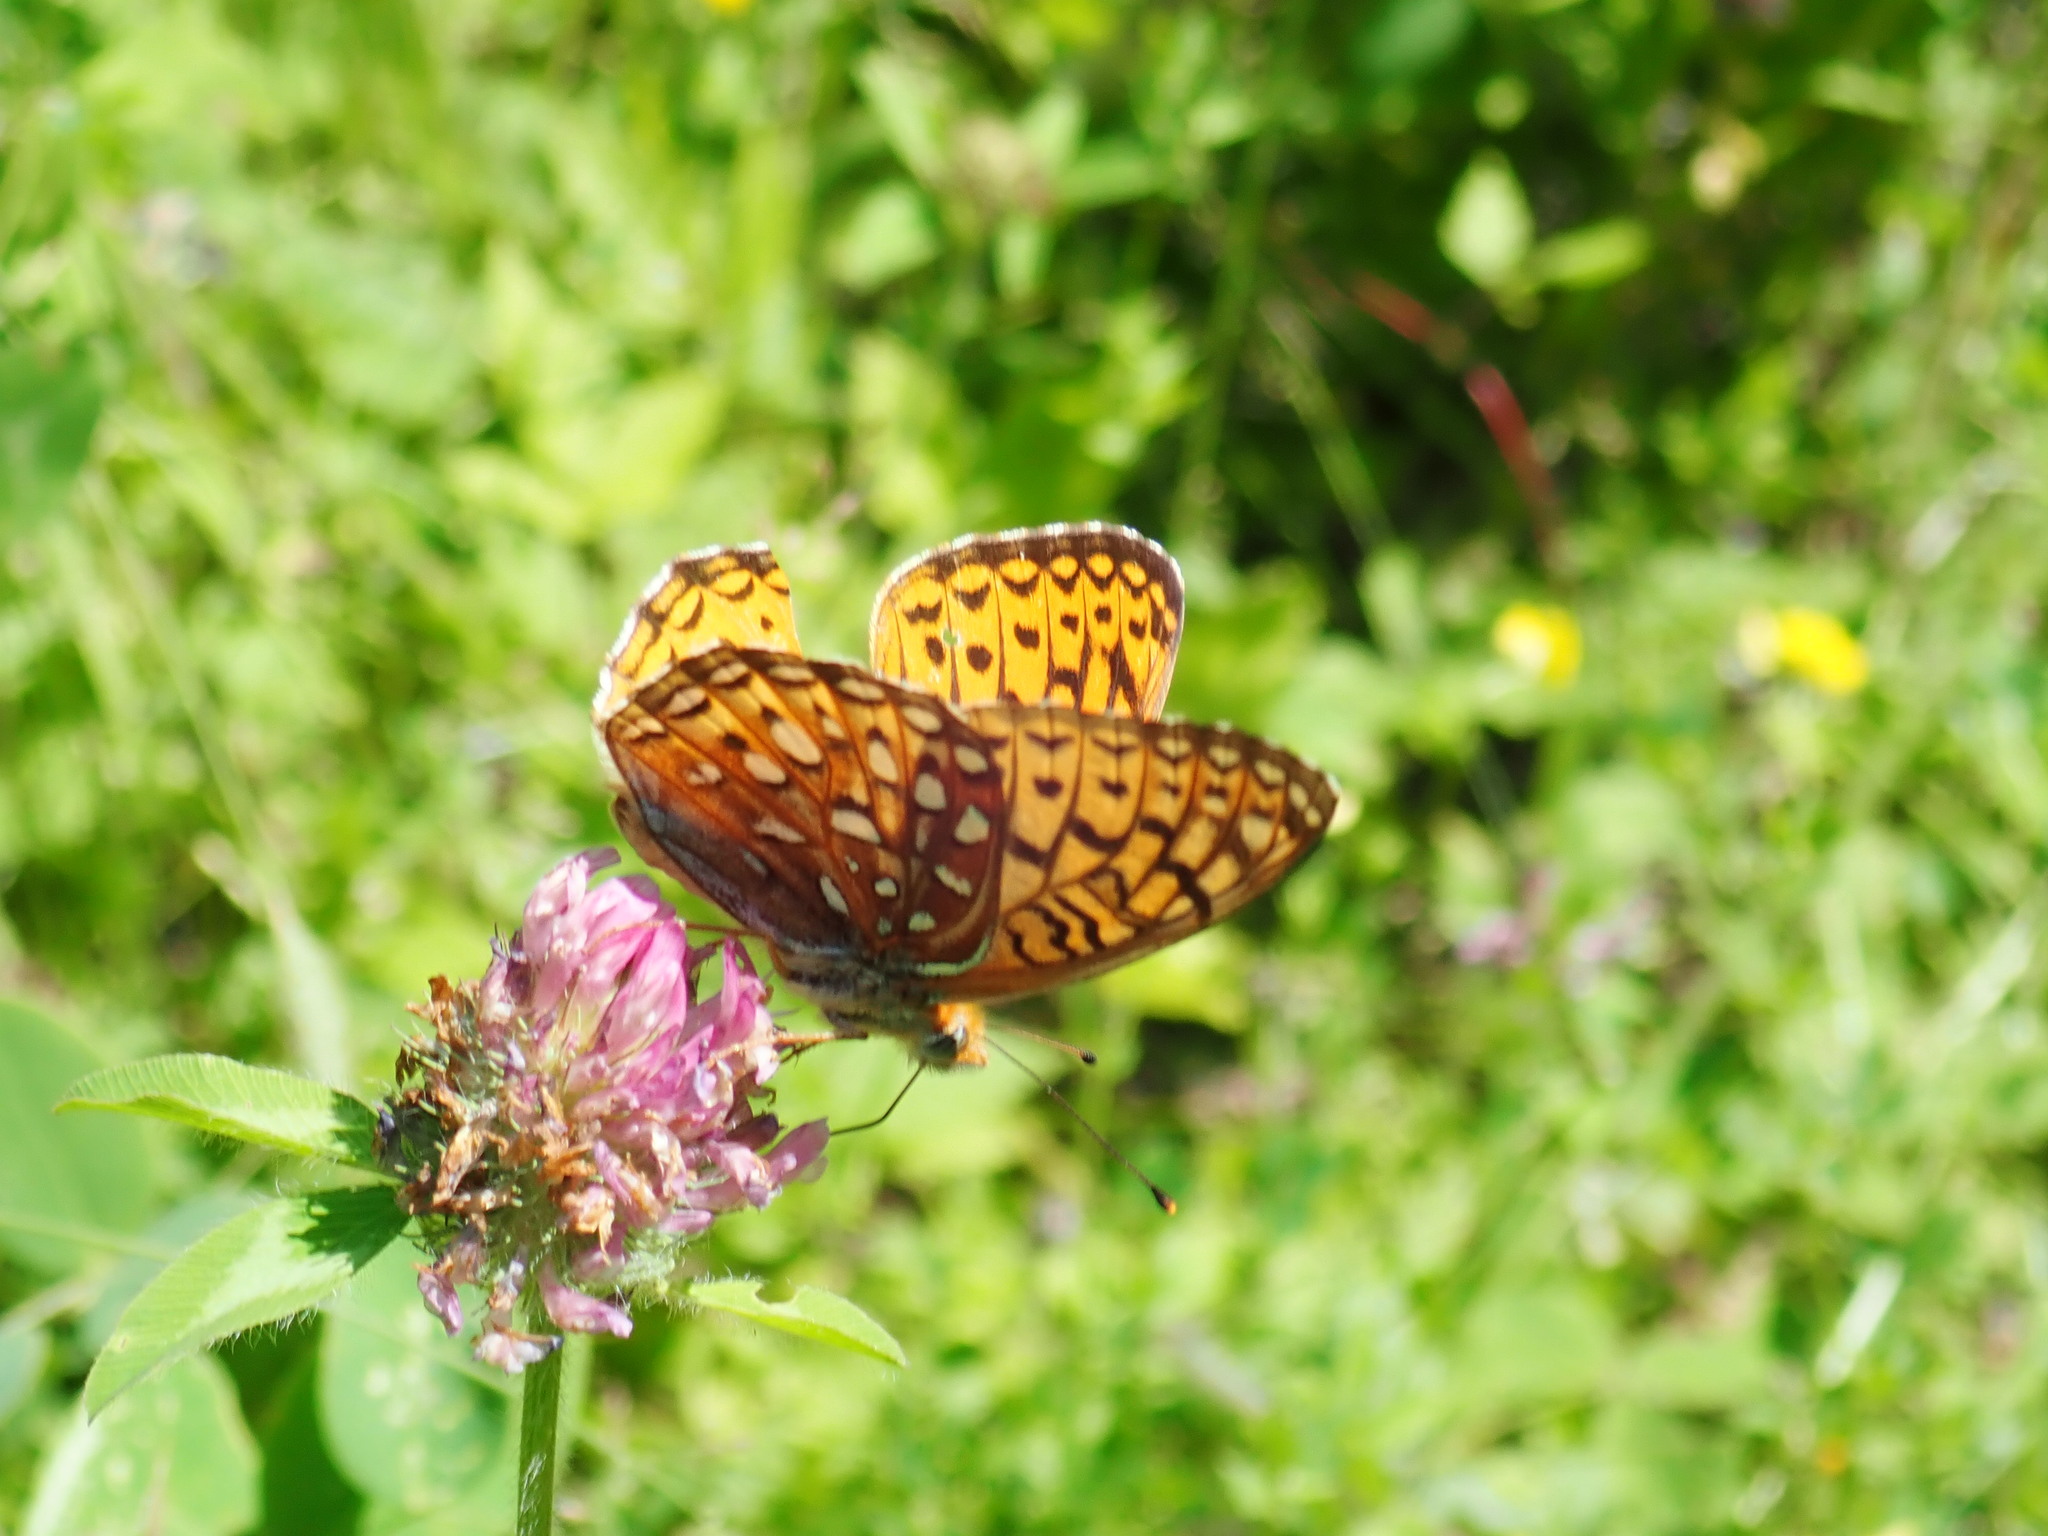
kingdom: Animalia
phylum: Arthropoda
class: Insecta
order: Lepidoptera
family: Nymphalidae
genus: Speyeria
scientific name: Speyeria atlantis
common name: Atlantis fritillary
